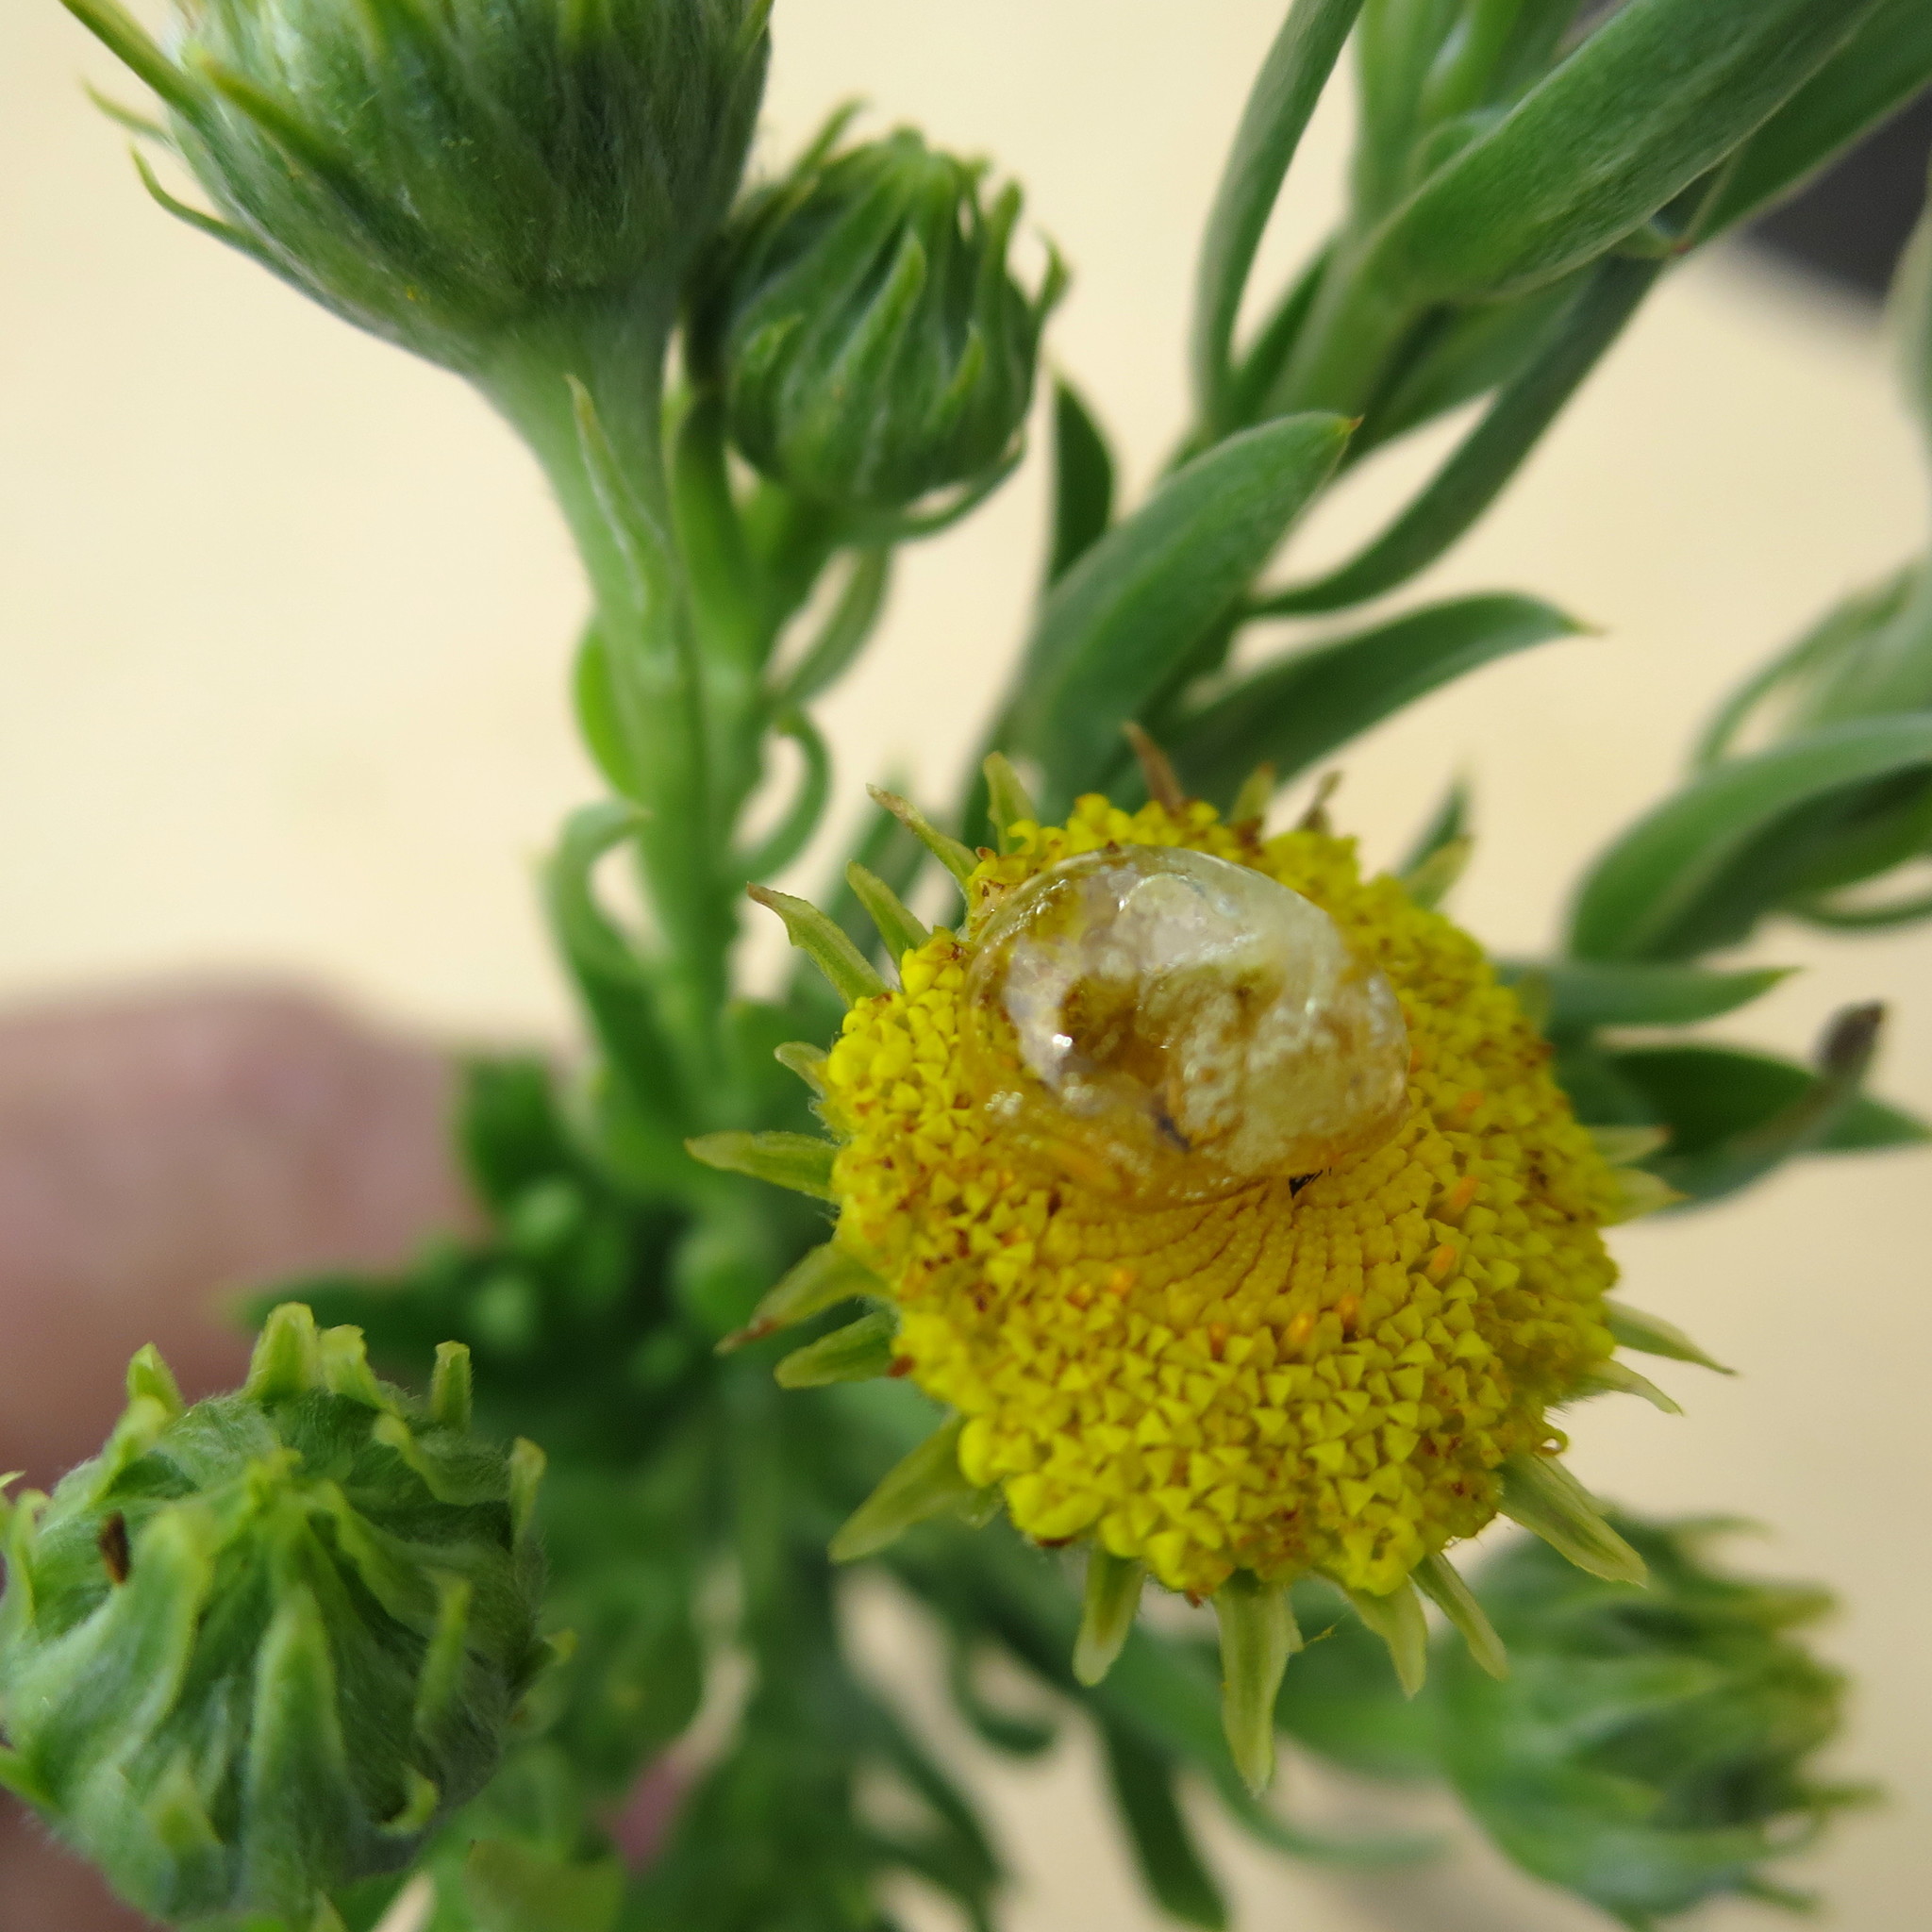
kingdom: Plantae
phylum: Tracheophyta
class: Magnoliopsida
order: Asterales
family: Asteraceae
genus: Schistostephium
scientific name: Schistostephium umbellatum
